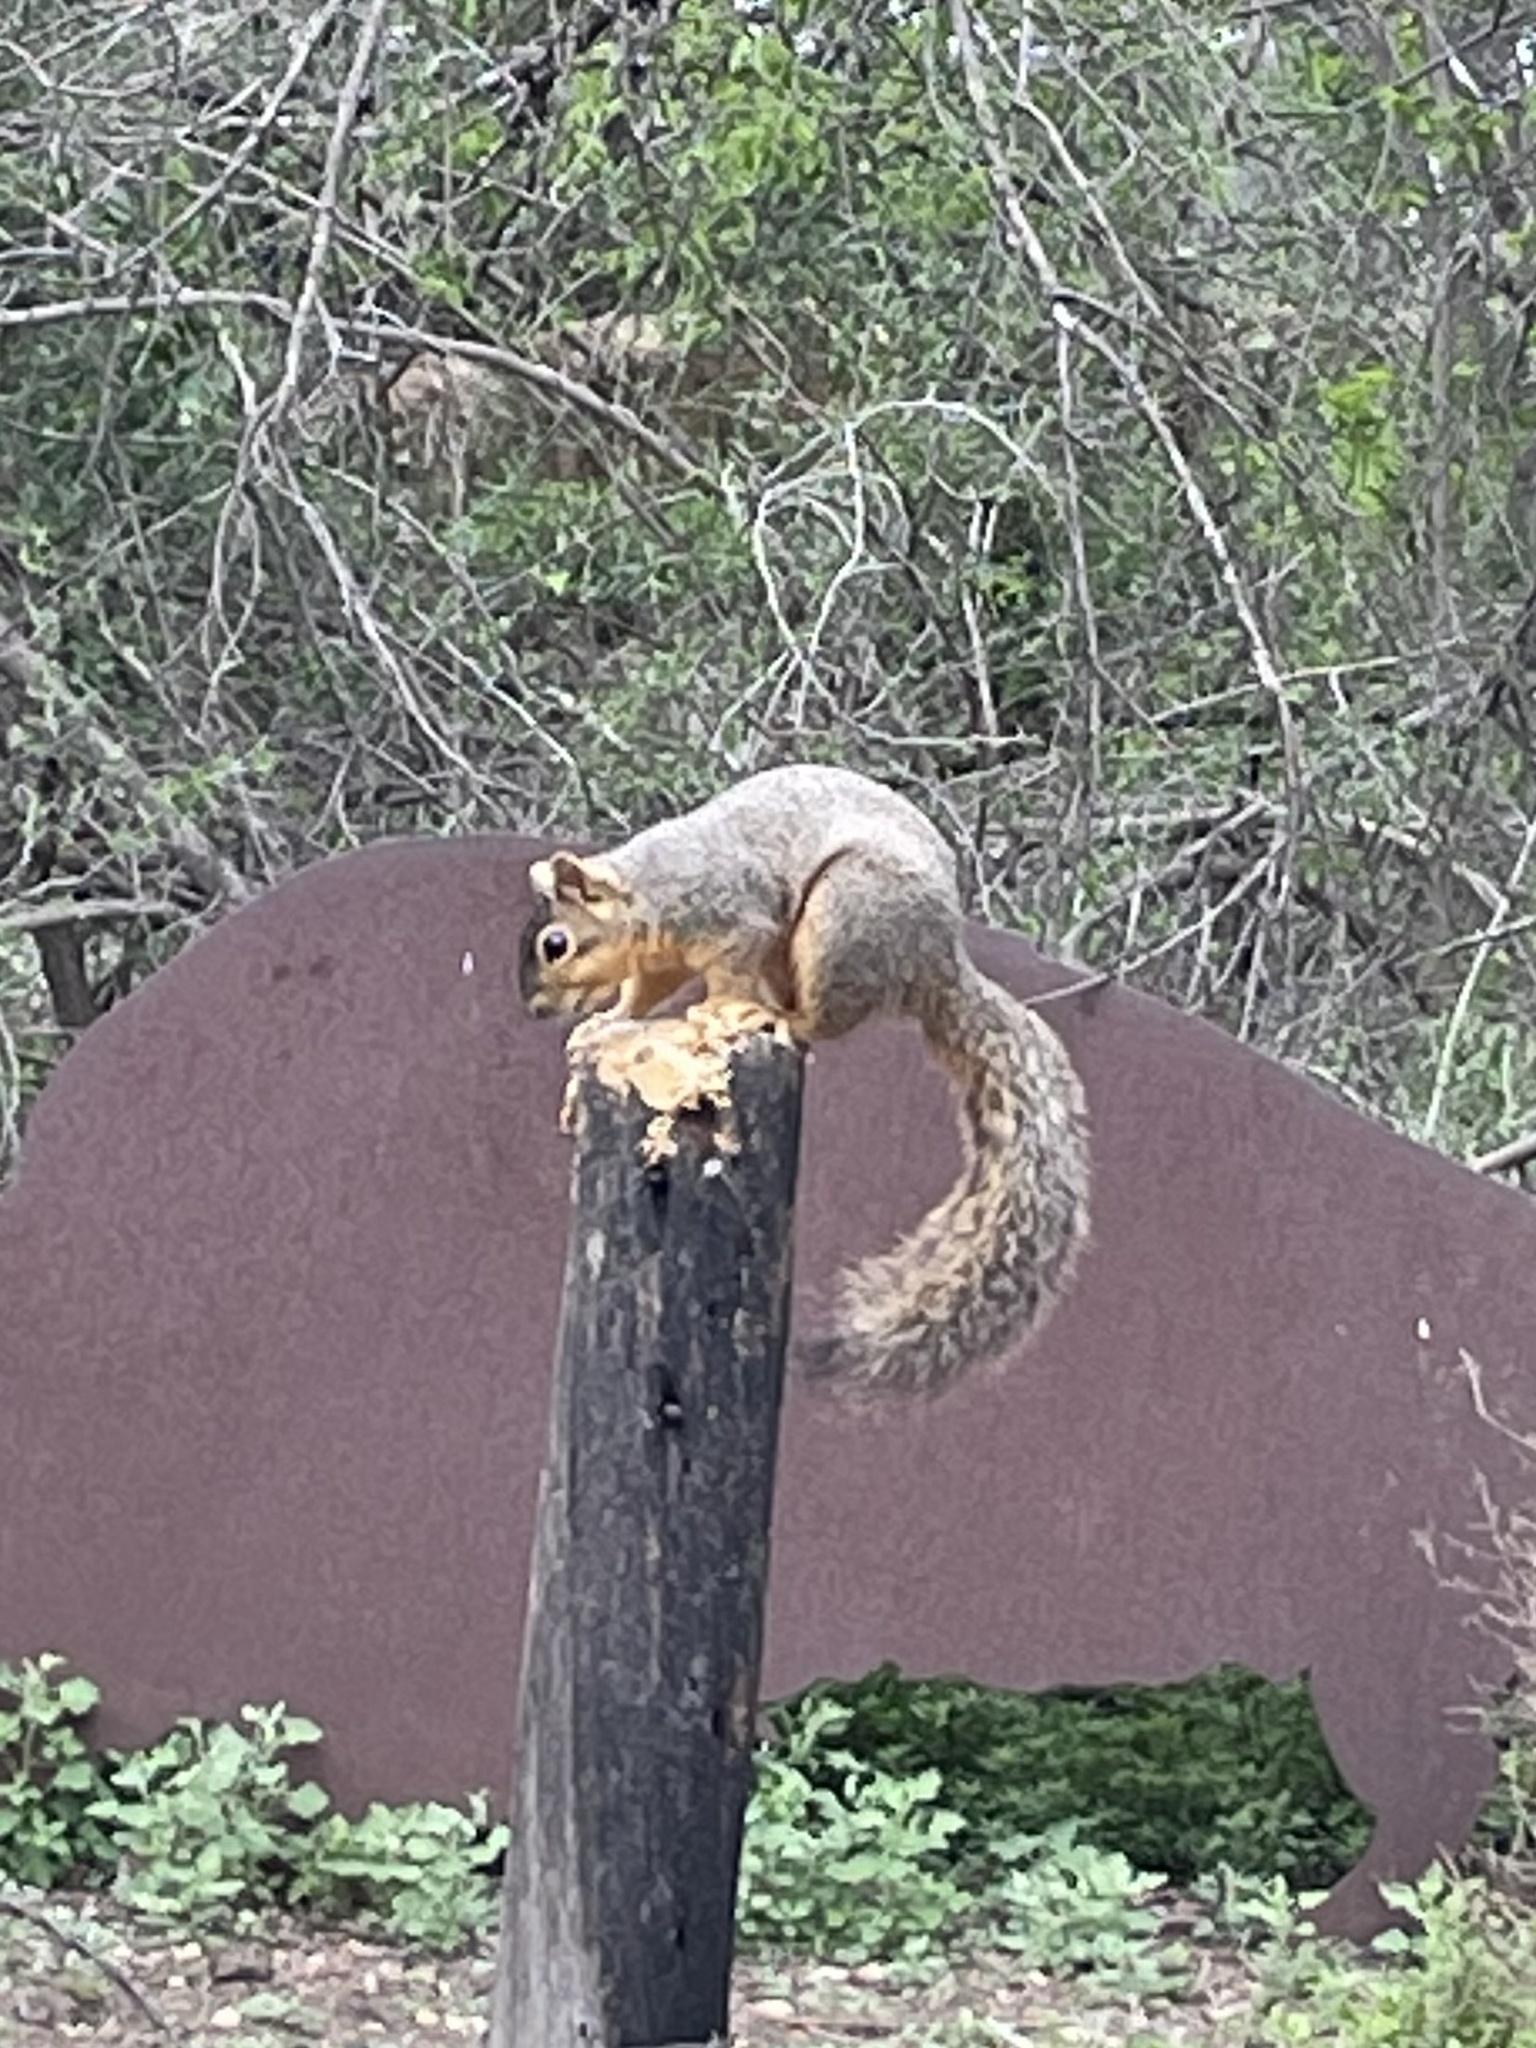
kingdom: Animalia
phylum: Chordata
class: Mammalia
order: Rodentia
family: Sciuridae
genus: Sciurus
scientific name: Sciurus niger
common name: Fox squirrel
